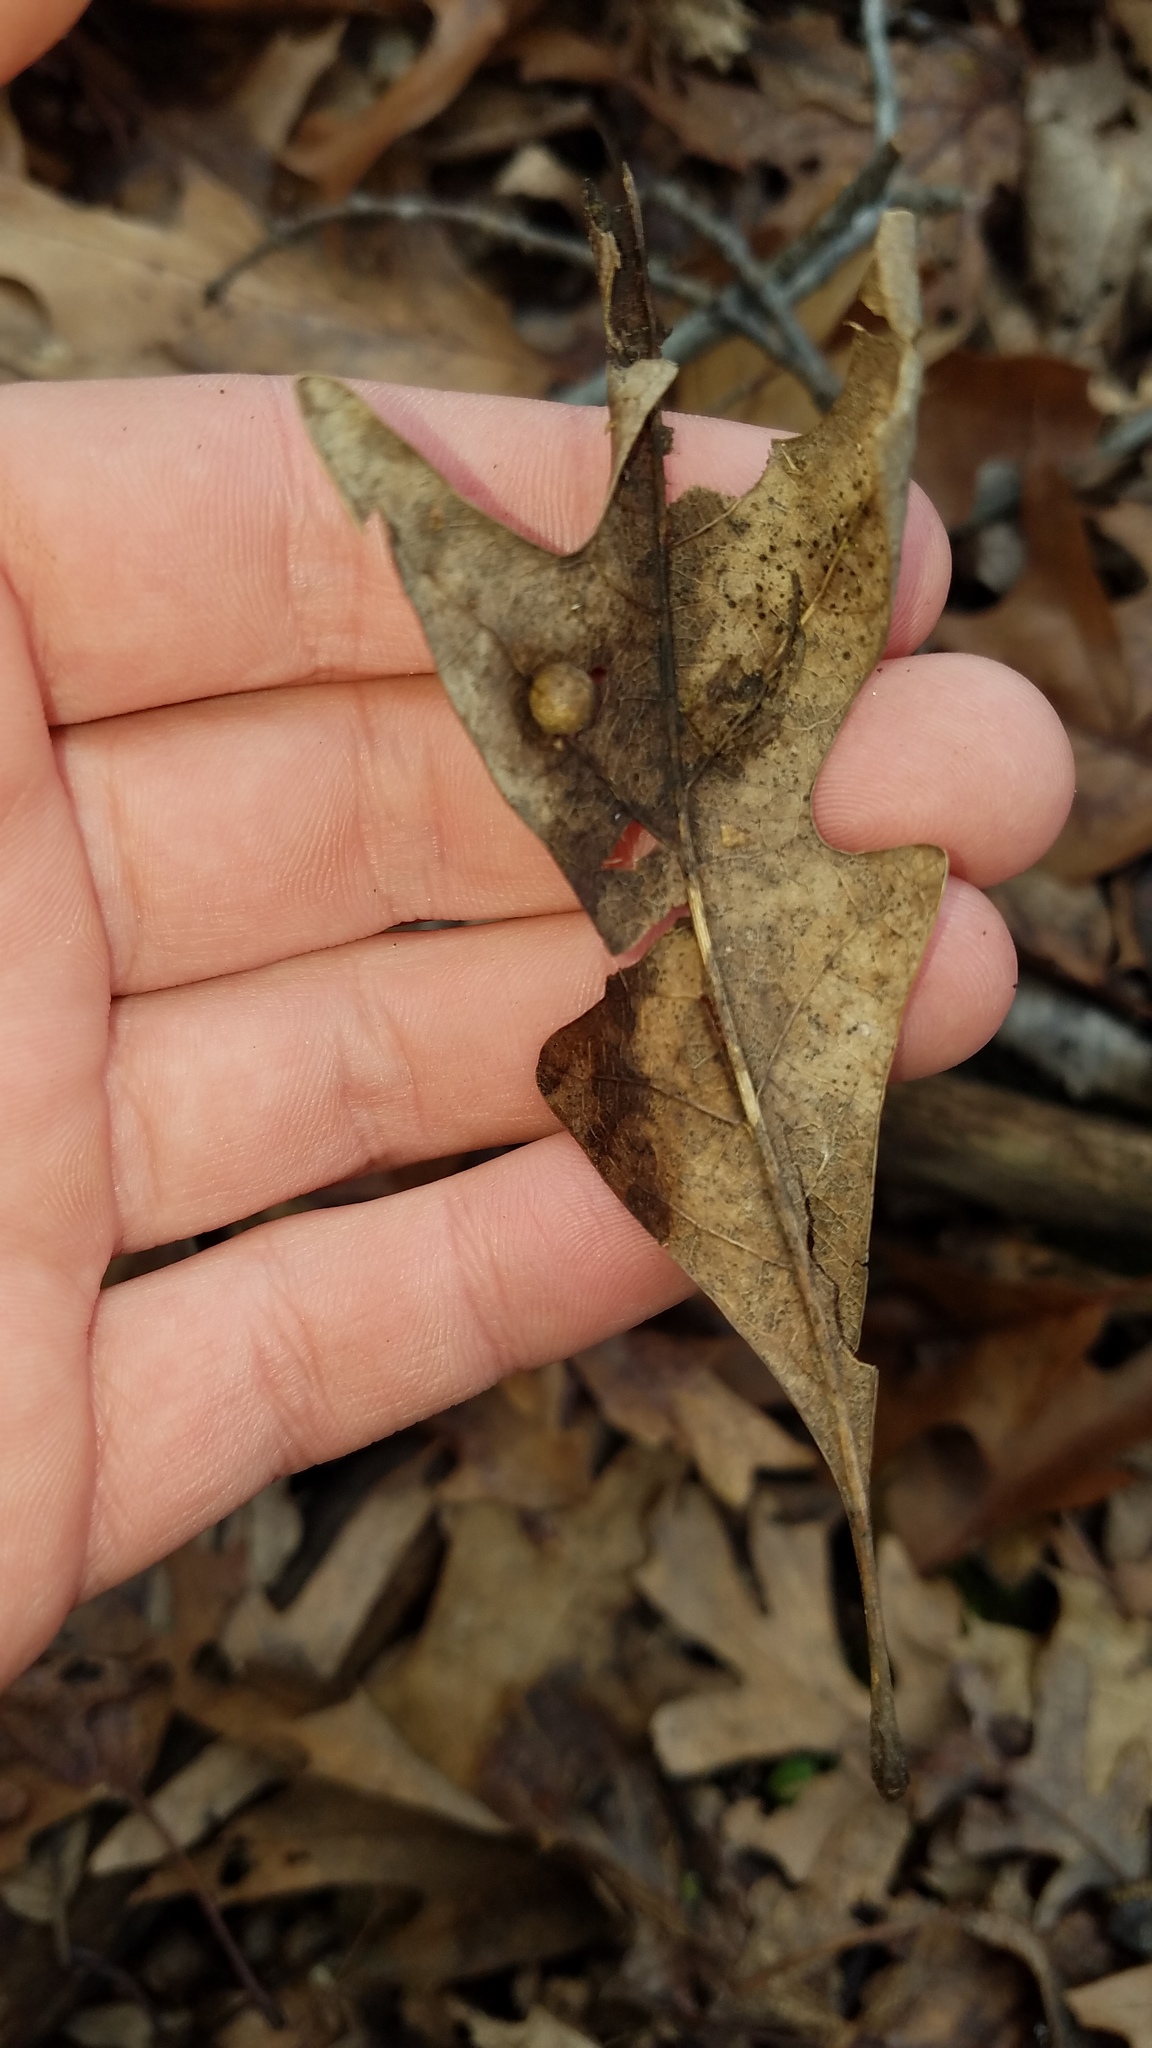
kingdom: Animalia
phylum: Arthropoda
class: Insecta
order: Diptera
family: Cecidomyiidae
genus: Polystepha
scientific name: Polystepha pilulae
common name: Oak leaf gall midge
